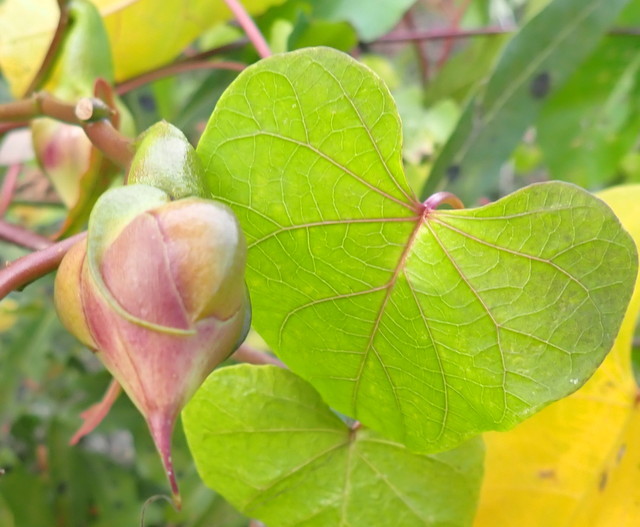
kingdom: Plantae
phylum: Tracheophyta
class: Magnoliopsida
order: Solanales
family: Convolvulaceae
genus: Ipomoea
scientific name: Ipomoea alba
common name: Moonflower
